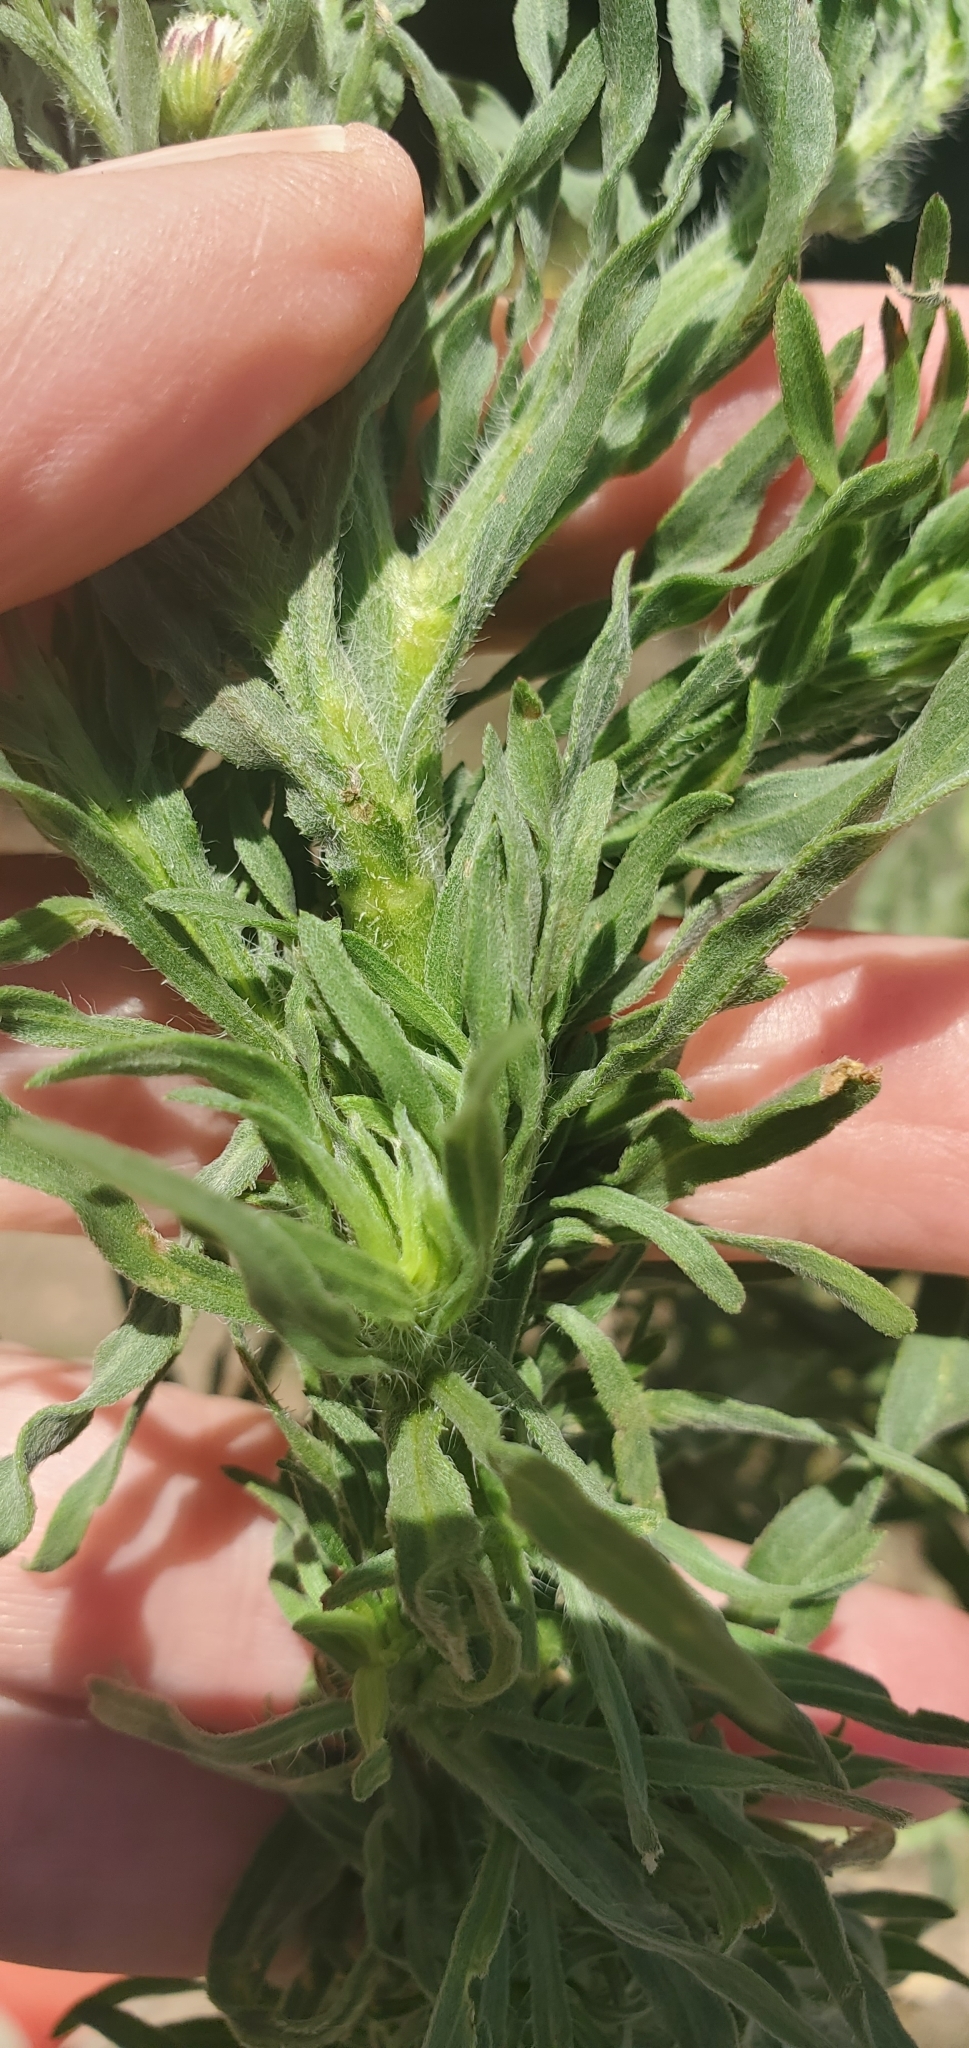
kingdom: Plantae
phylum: Tracheophyta
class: Magnoliopsida
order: Asterales
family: Asteraceae
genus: Erigeron
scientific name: Erigeron bonariensis
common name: Argentine fleabane
